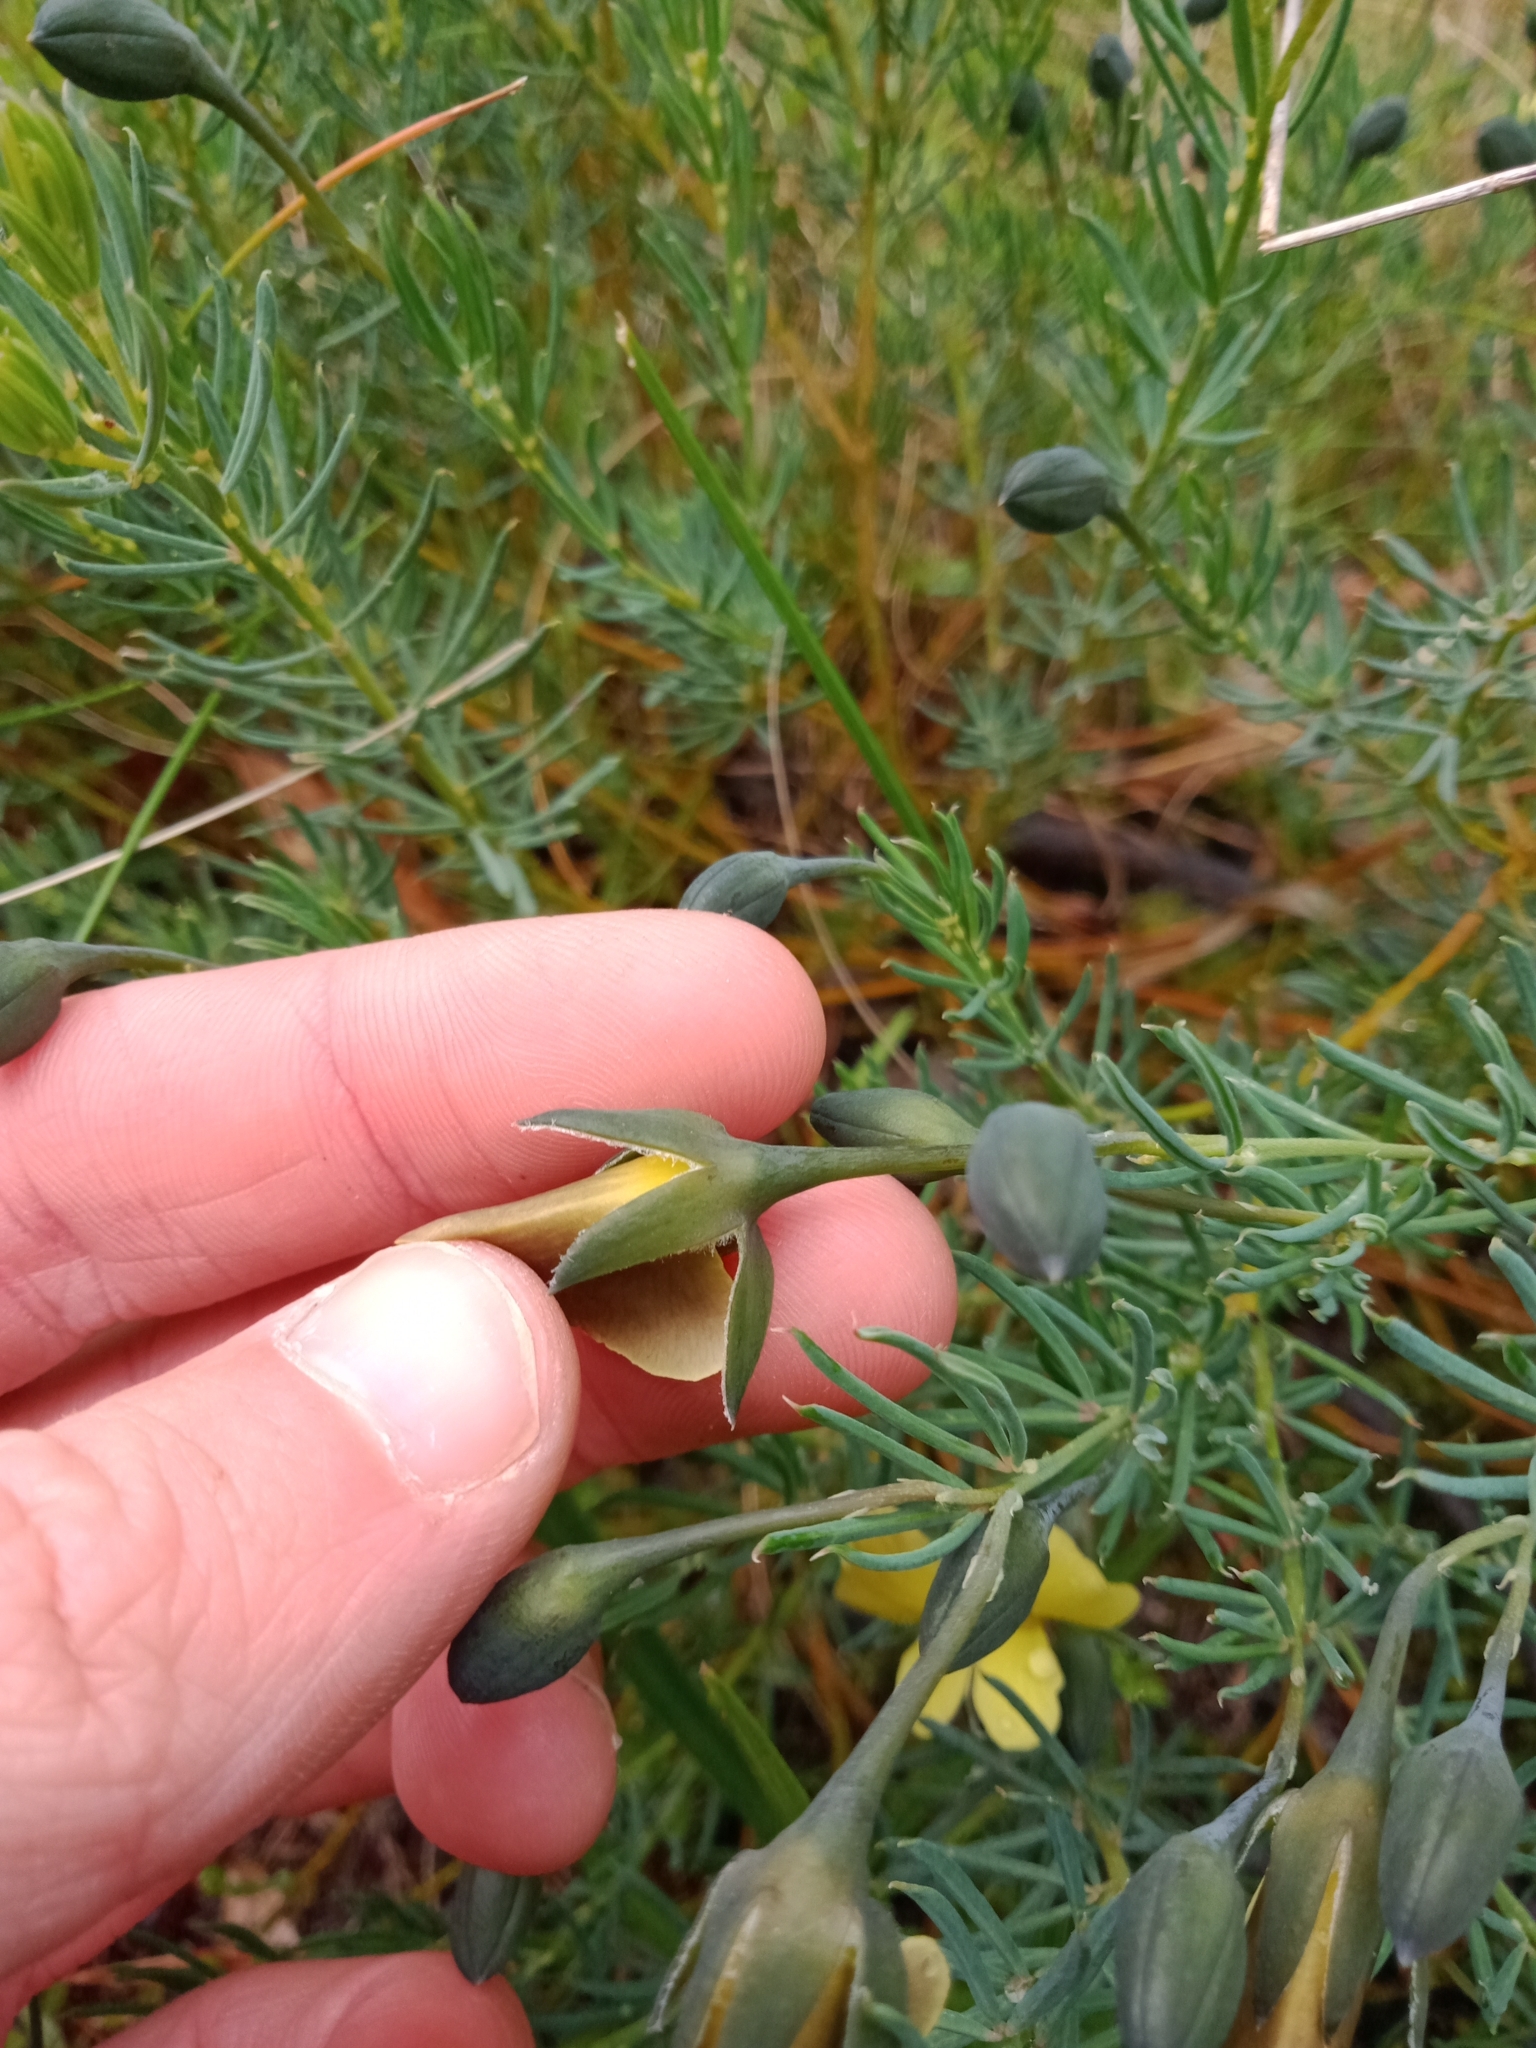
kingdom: Plantae
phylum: Tracheophyta
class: Magnoliopsida
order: Fabales
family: Fabaceae
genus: Gompholobium
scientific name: Gompholobium huegelii
